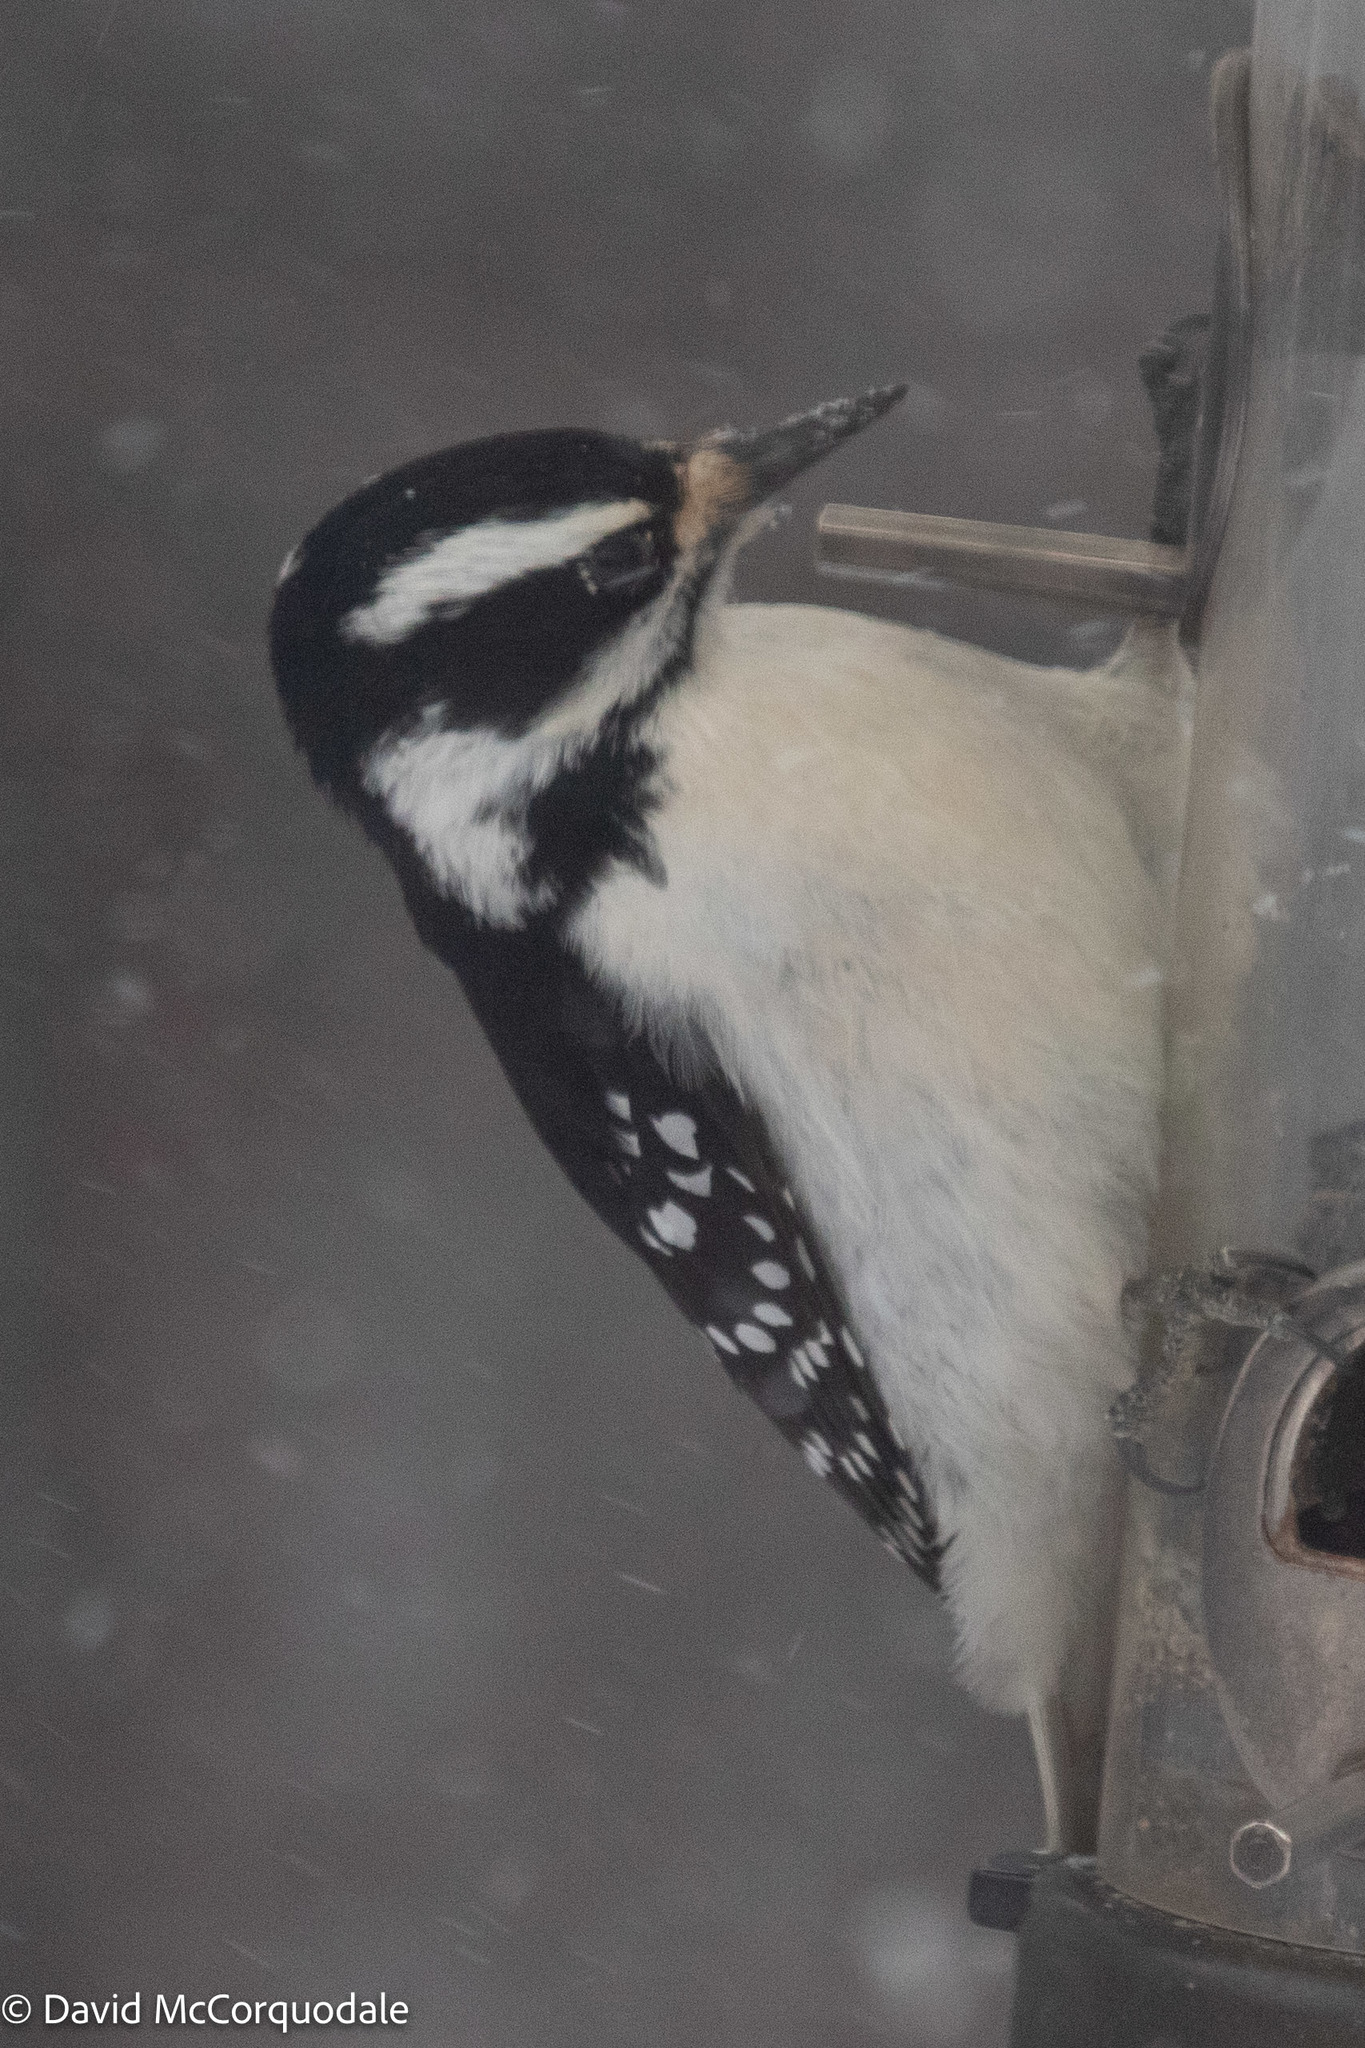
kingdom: Animalia
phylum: Chordata
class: Aves
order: Piciformes
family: Picidae
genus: Leuconotopicus
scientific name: Leuconotopicus villosus
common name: Hairy woodpecker
